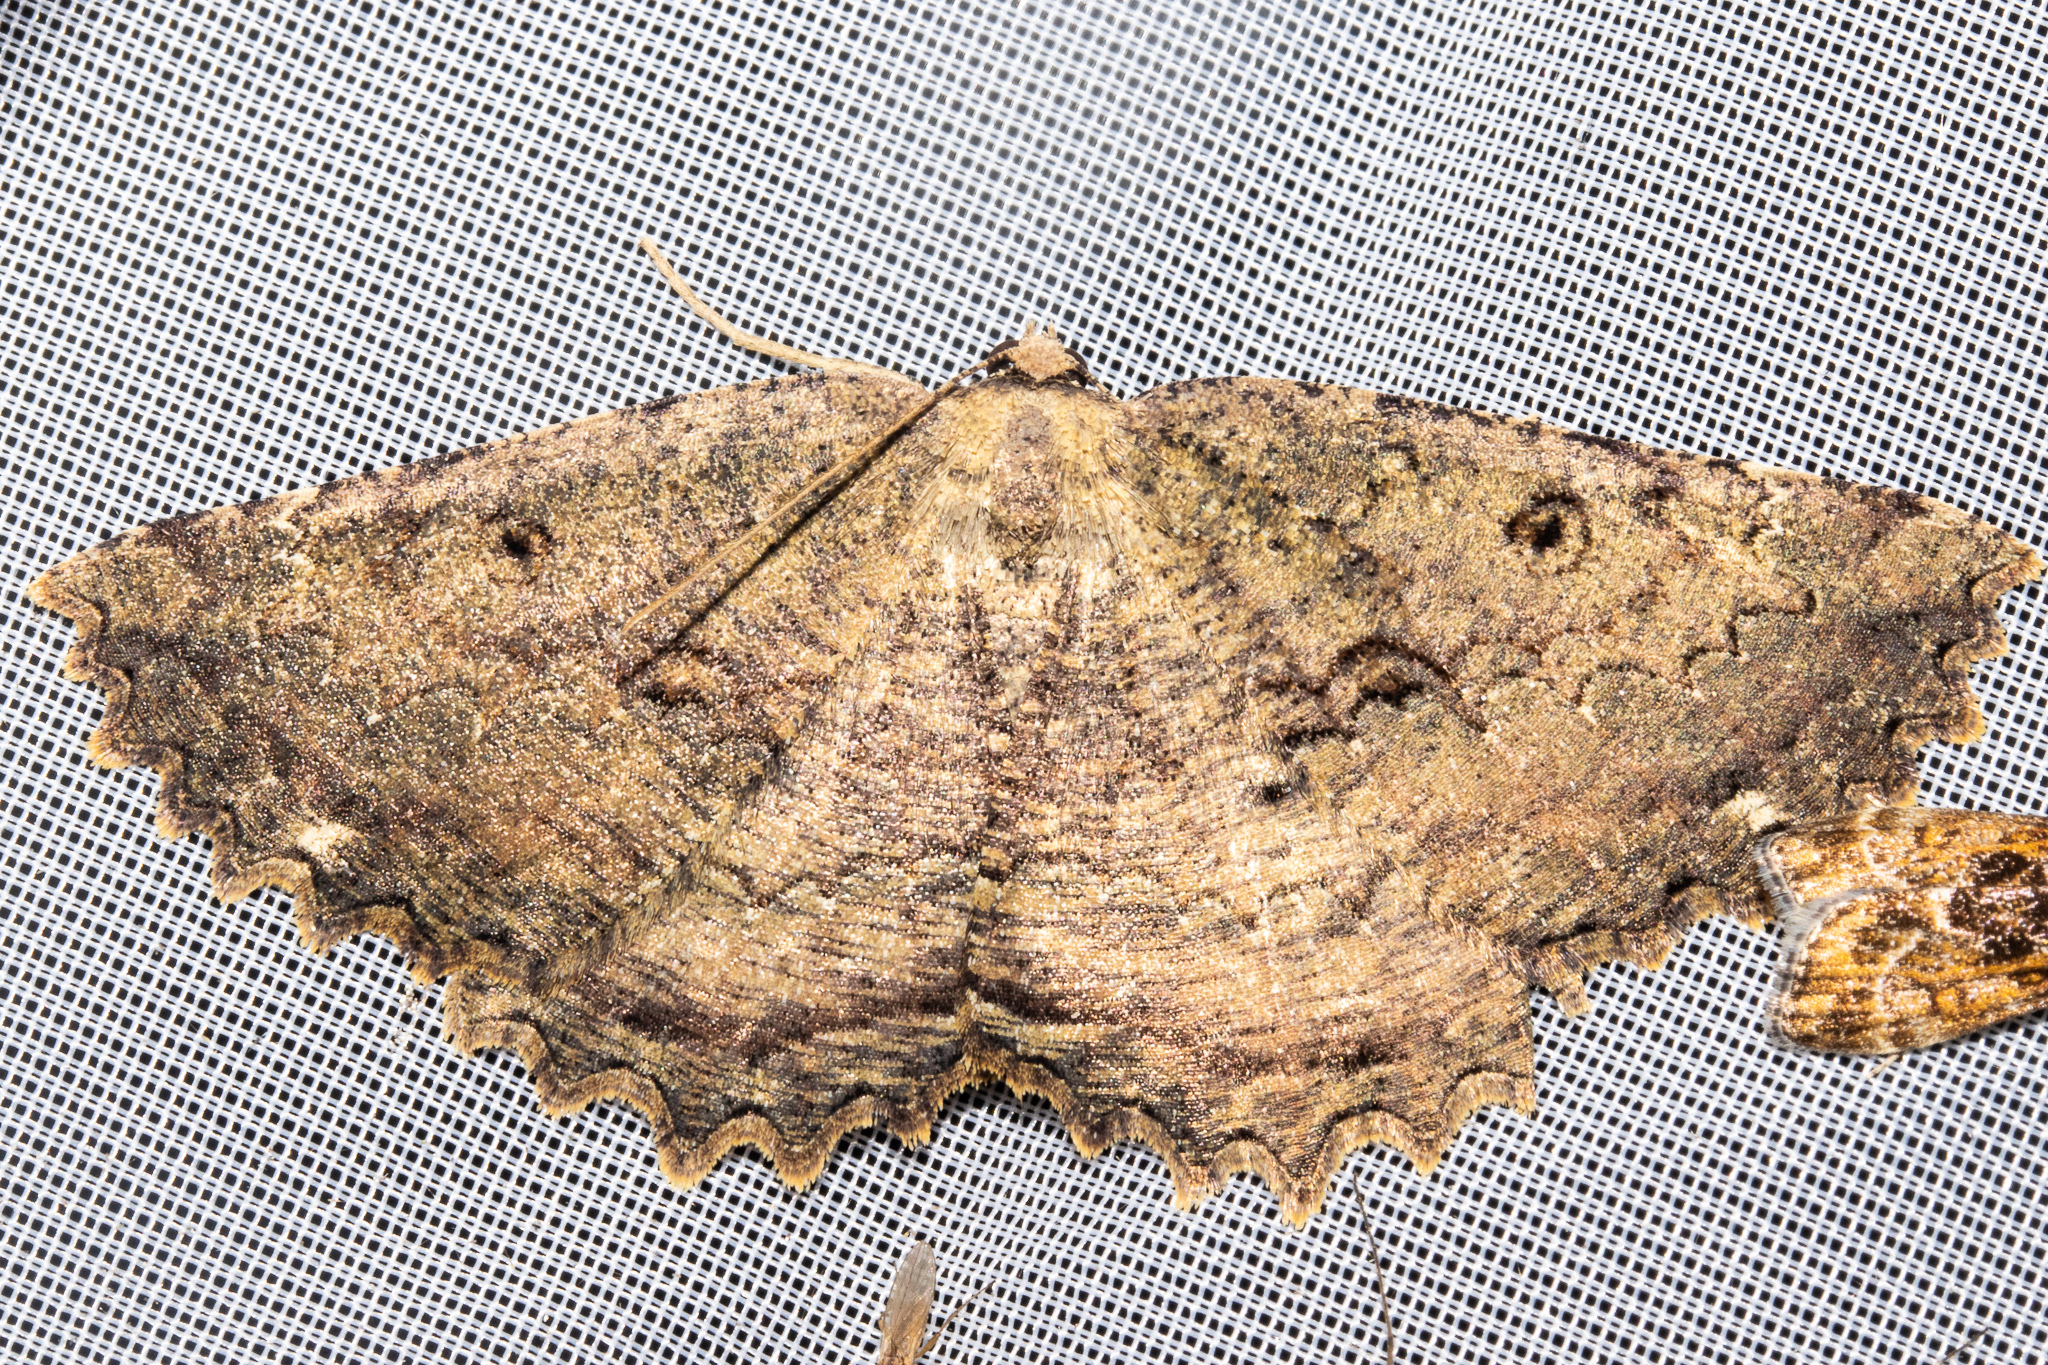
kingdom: Animalia
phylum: Arthropoda
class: Insecta
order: Lepidoptera
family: Geometridae
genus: Gellonia
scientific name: Gellonia pannularia
